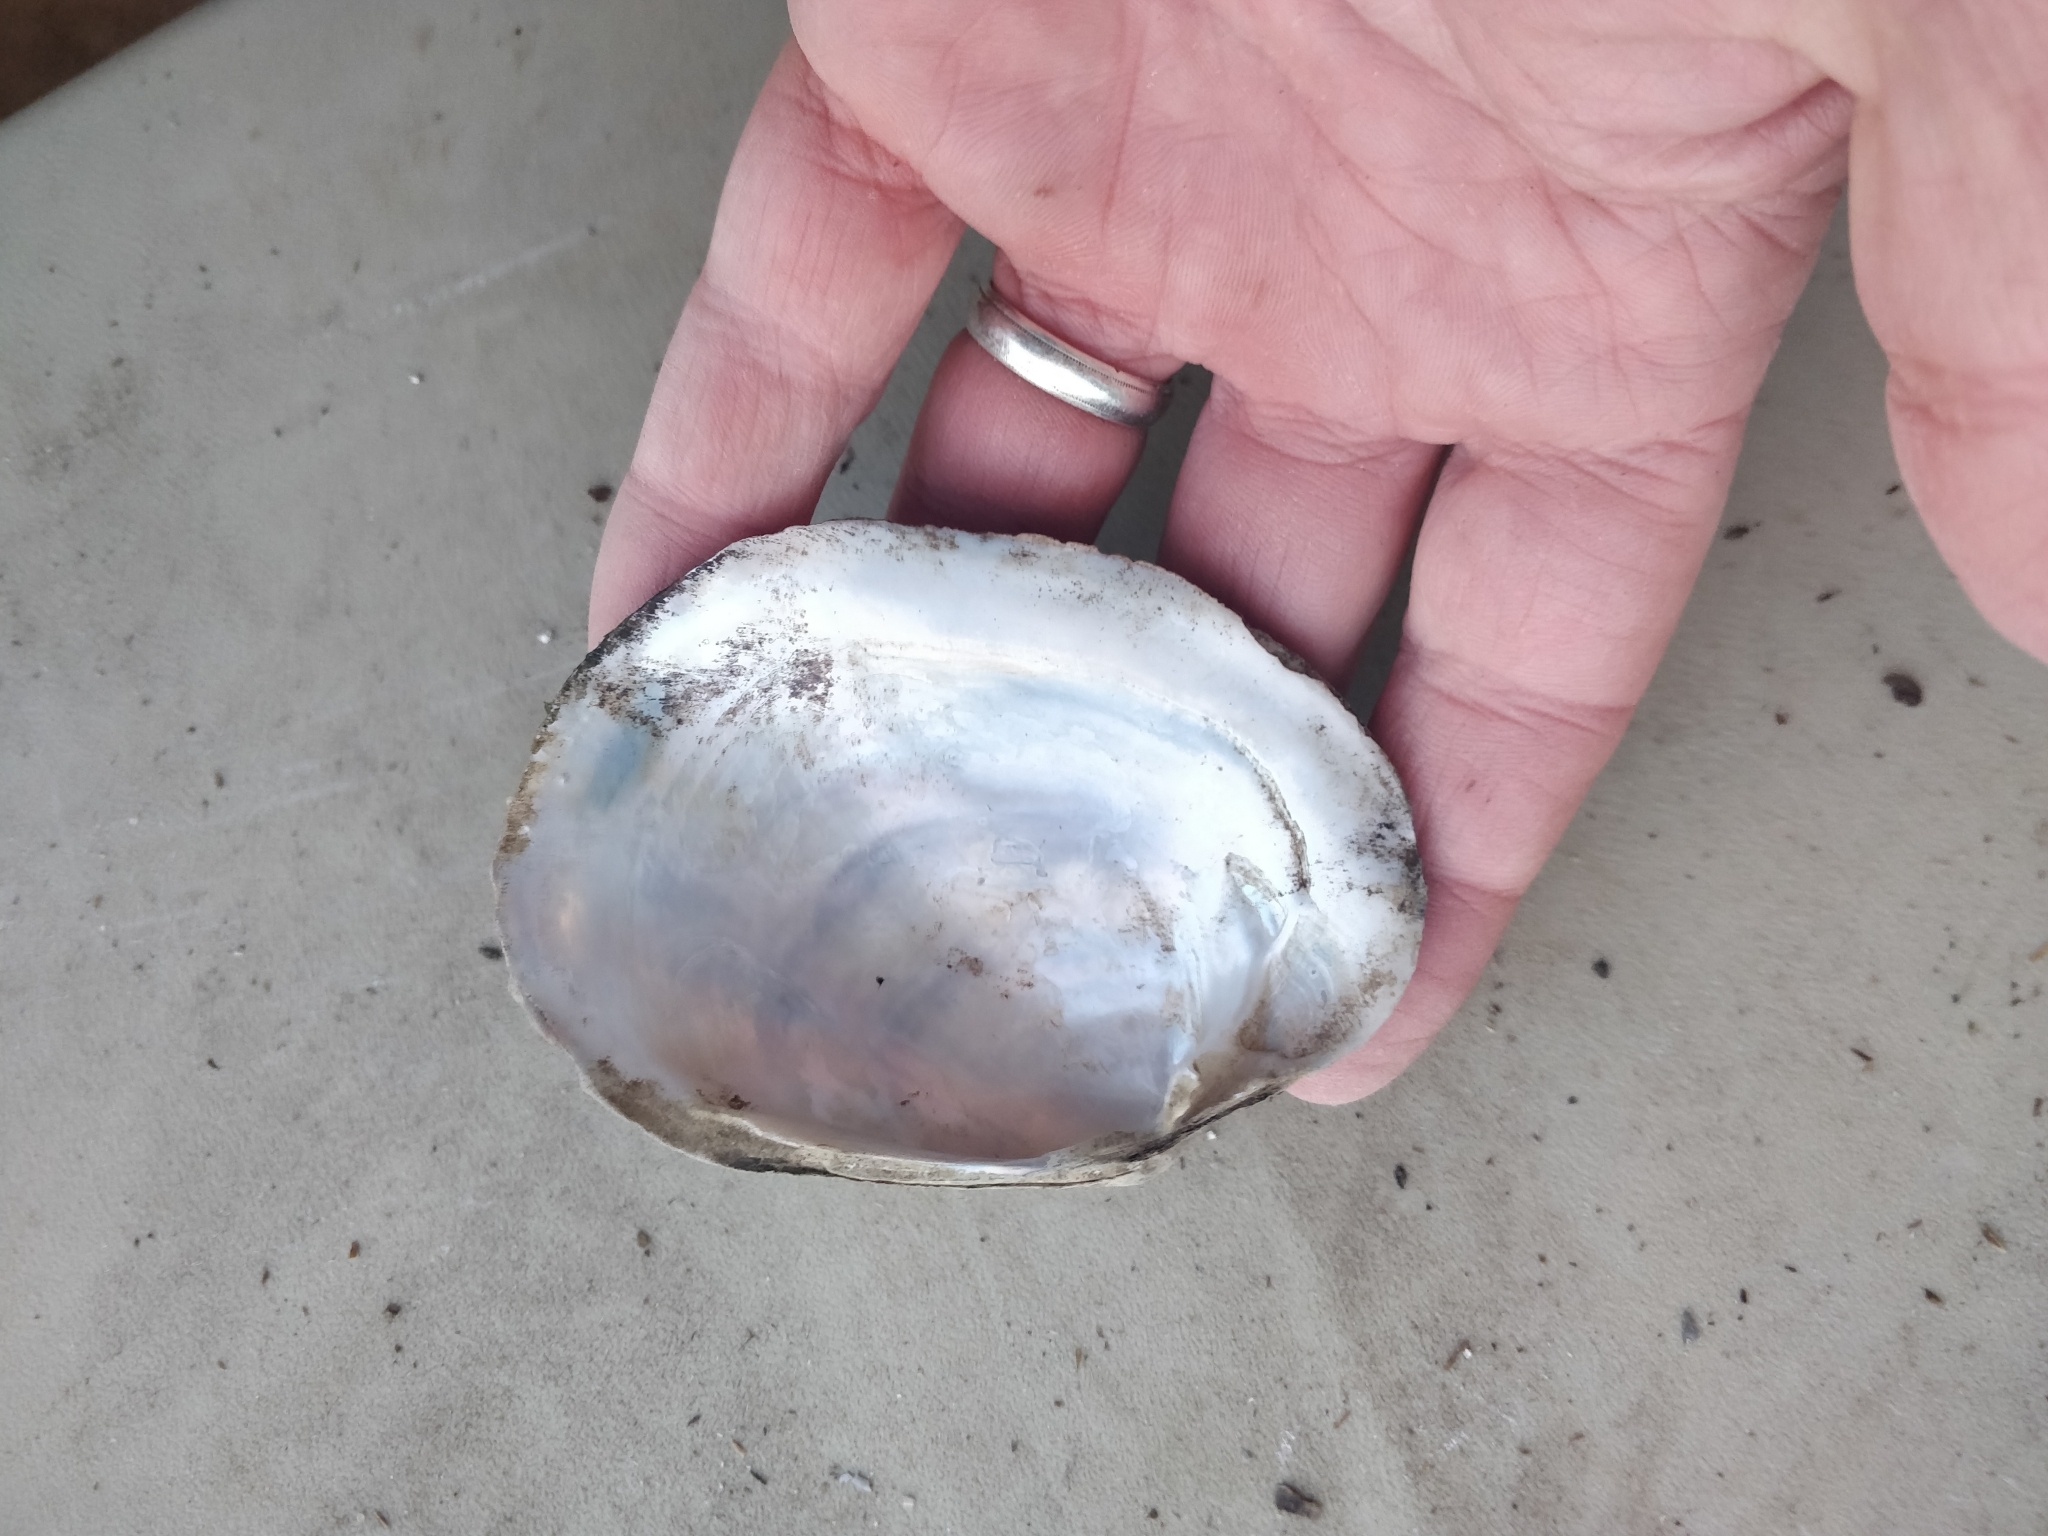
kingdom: Animalia
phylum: Mollusca
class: Bivalvia
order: Unionida
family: Unionidae
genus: Lampsilis
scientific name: Lampsilis cardium
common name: Plain pocketbook
